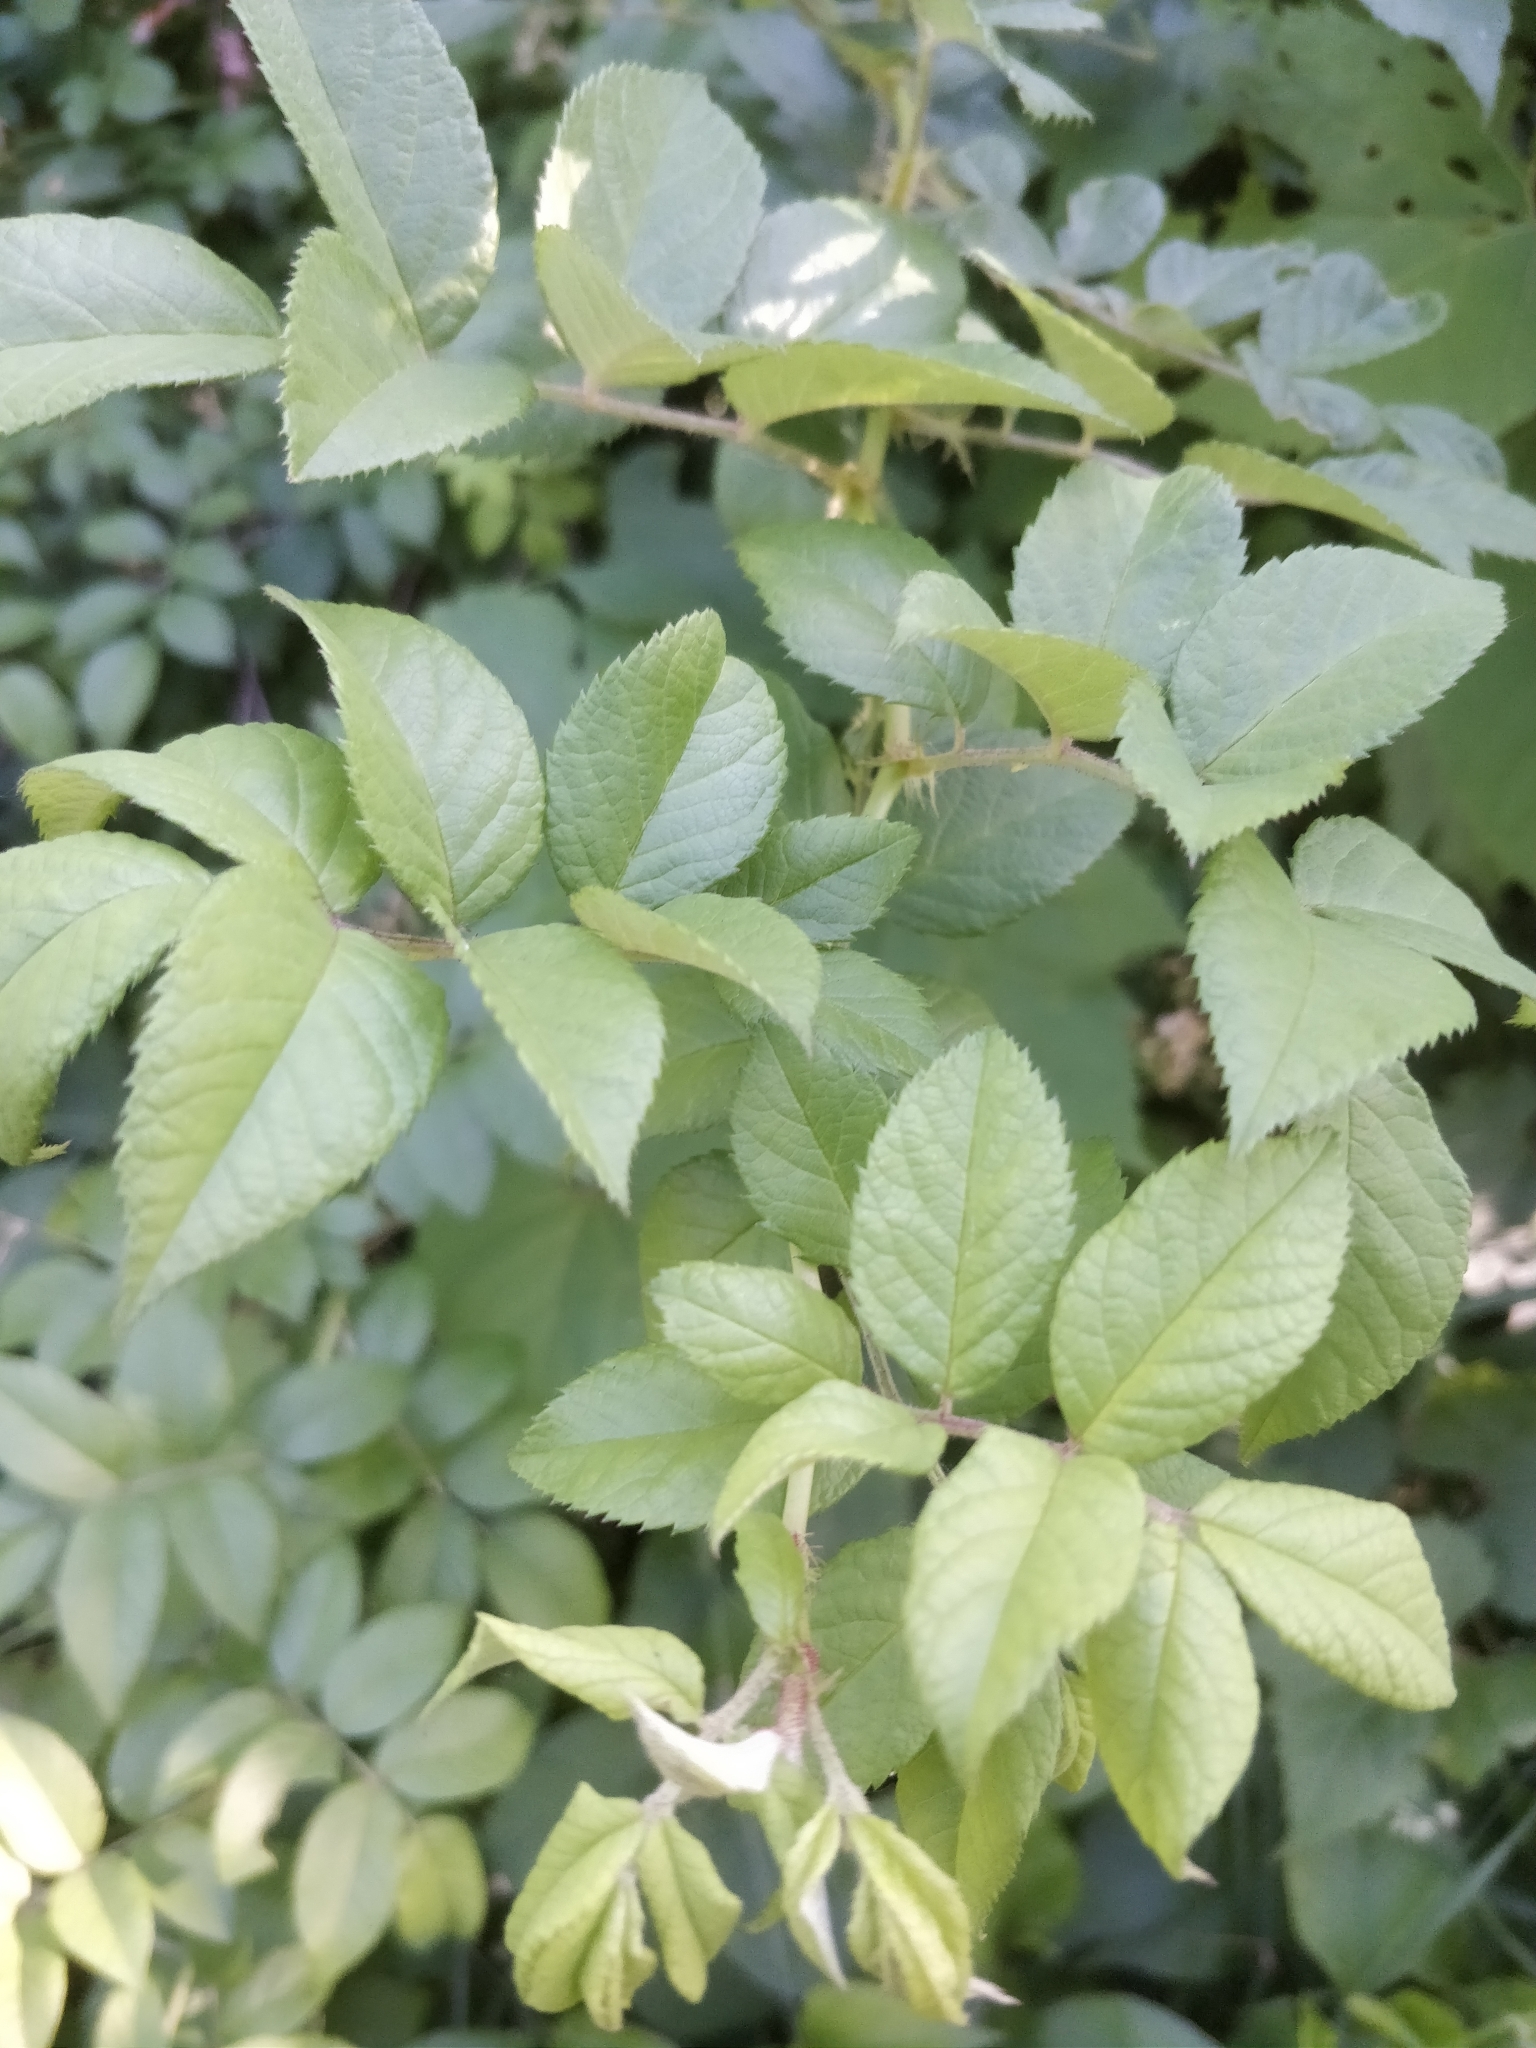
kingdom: Plantae
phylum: Tracheophyta
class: Magnoliopsida
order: Rosales
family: Rosaceae
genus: Rosa
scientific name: Rosa multiflora
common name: Multiflora rose
